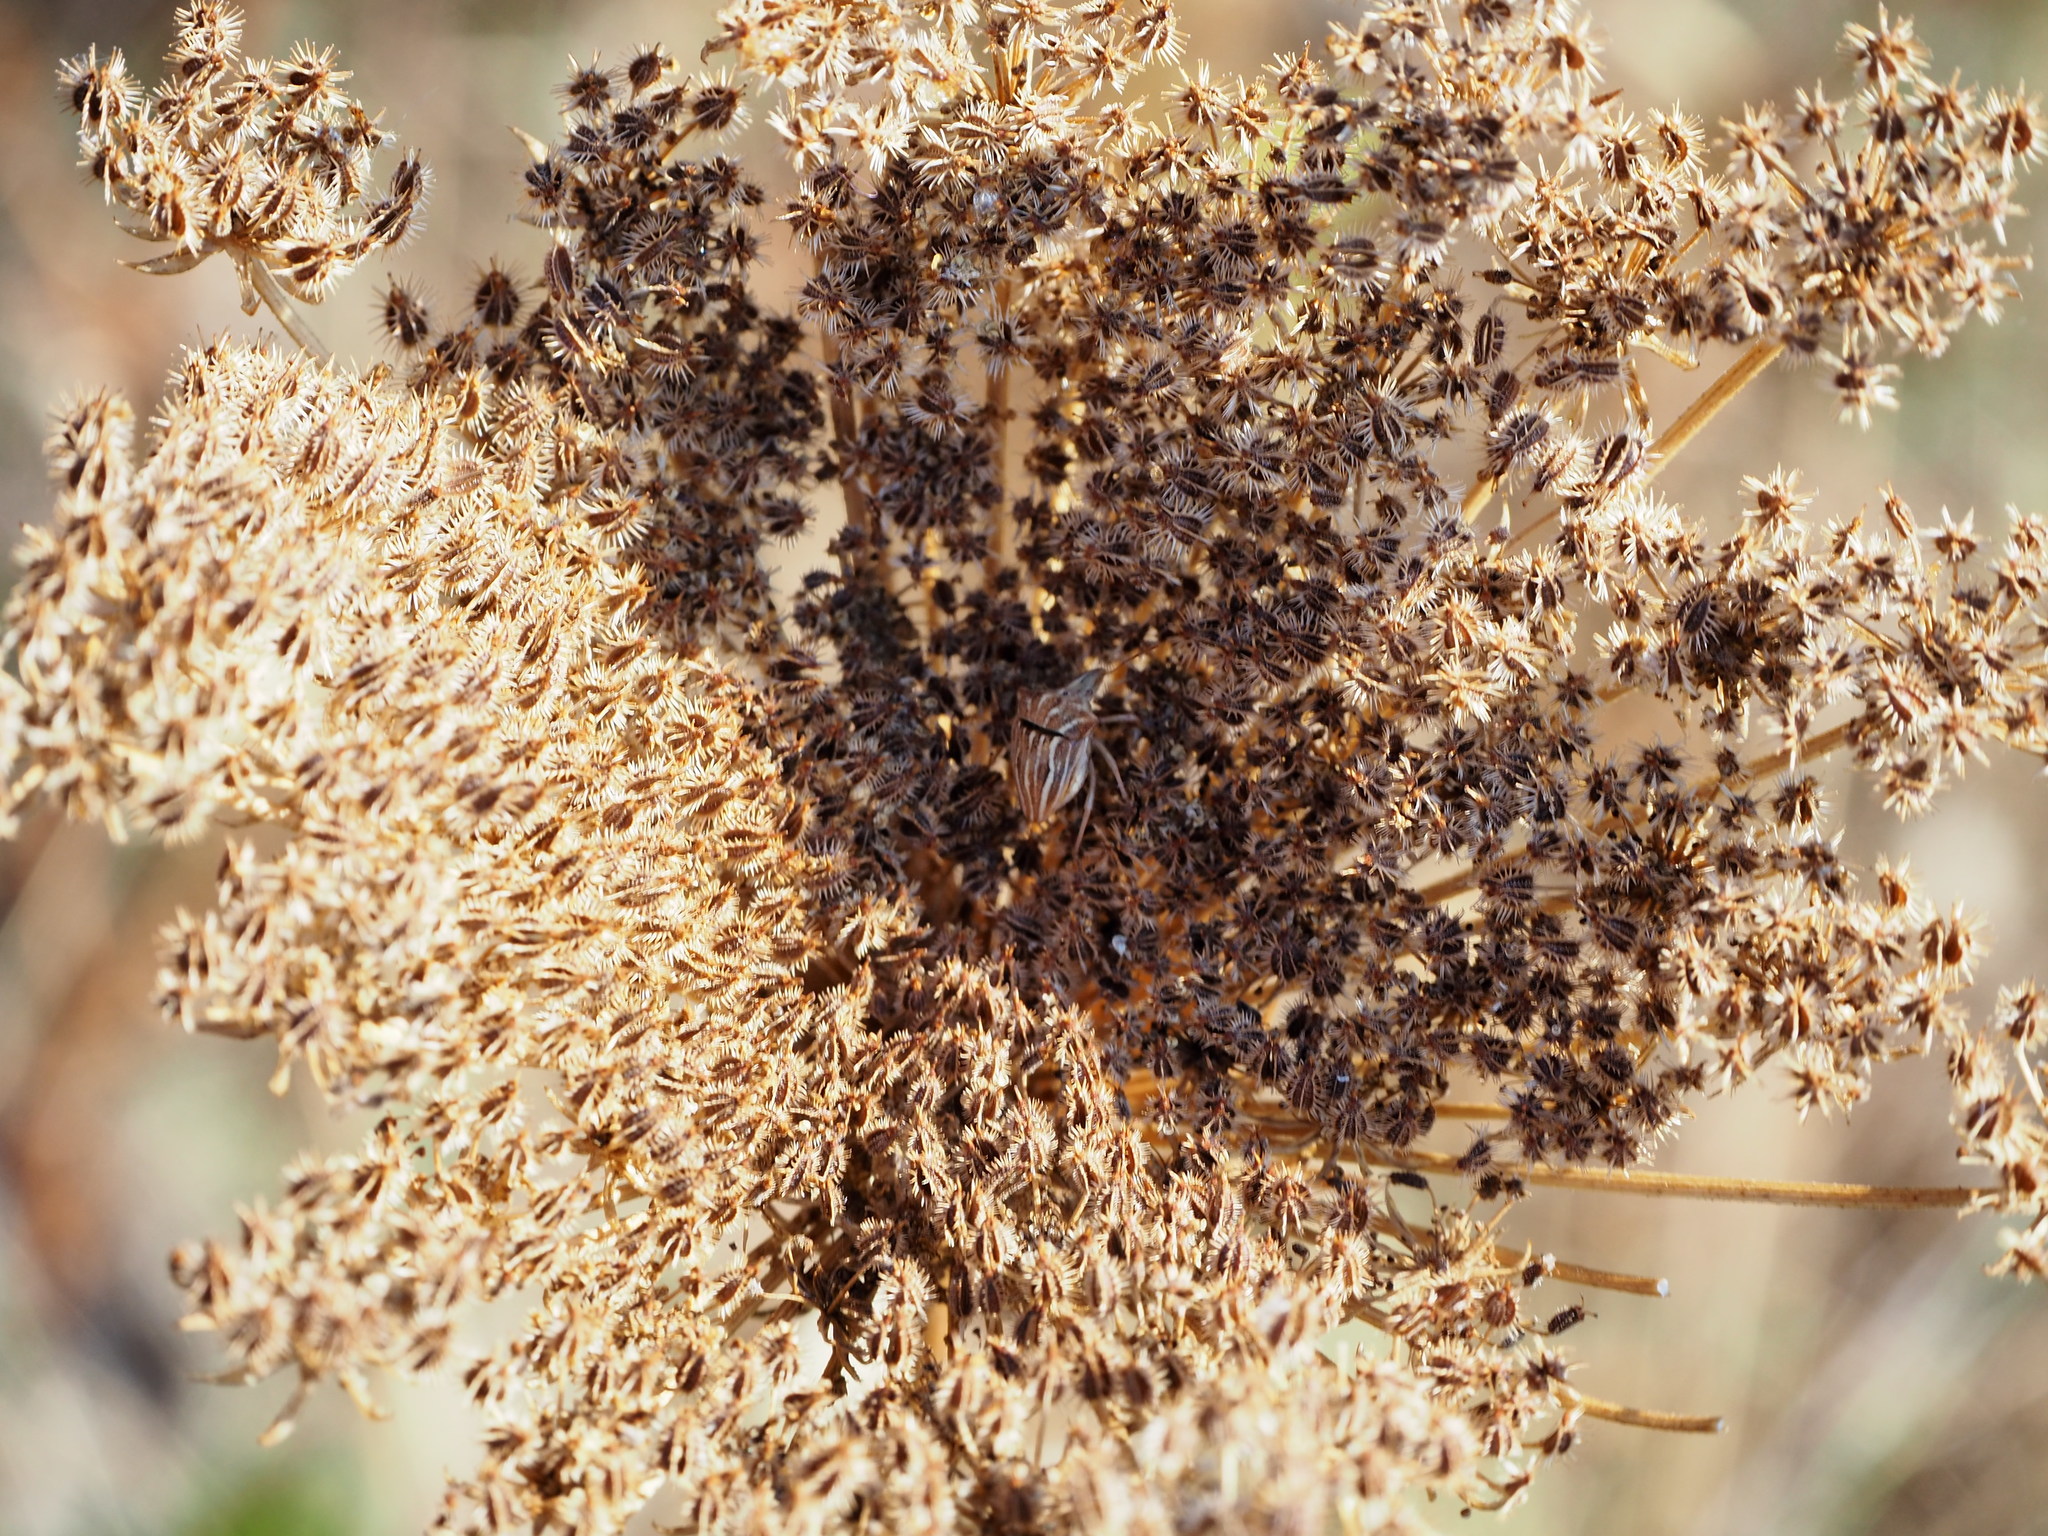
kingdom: Animalia
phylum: Arthropoda
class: Insecta
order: Hemiptera
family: Pentatomidae
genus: Ancyrosoma
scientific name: Ancyrosoma leucogrammes
